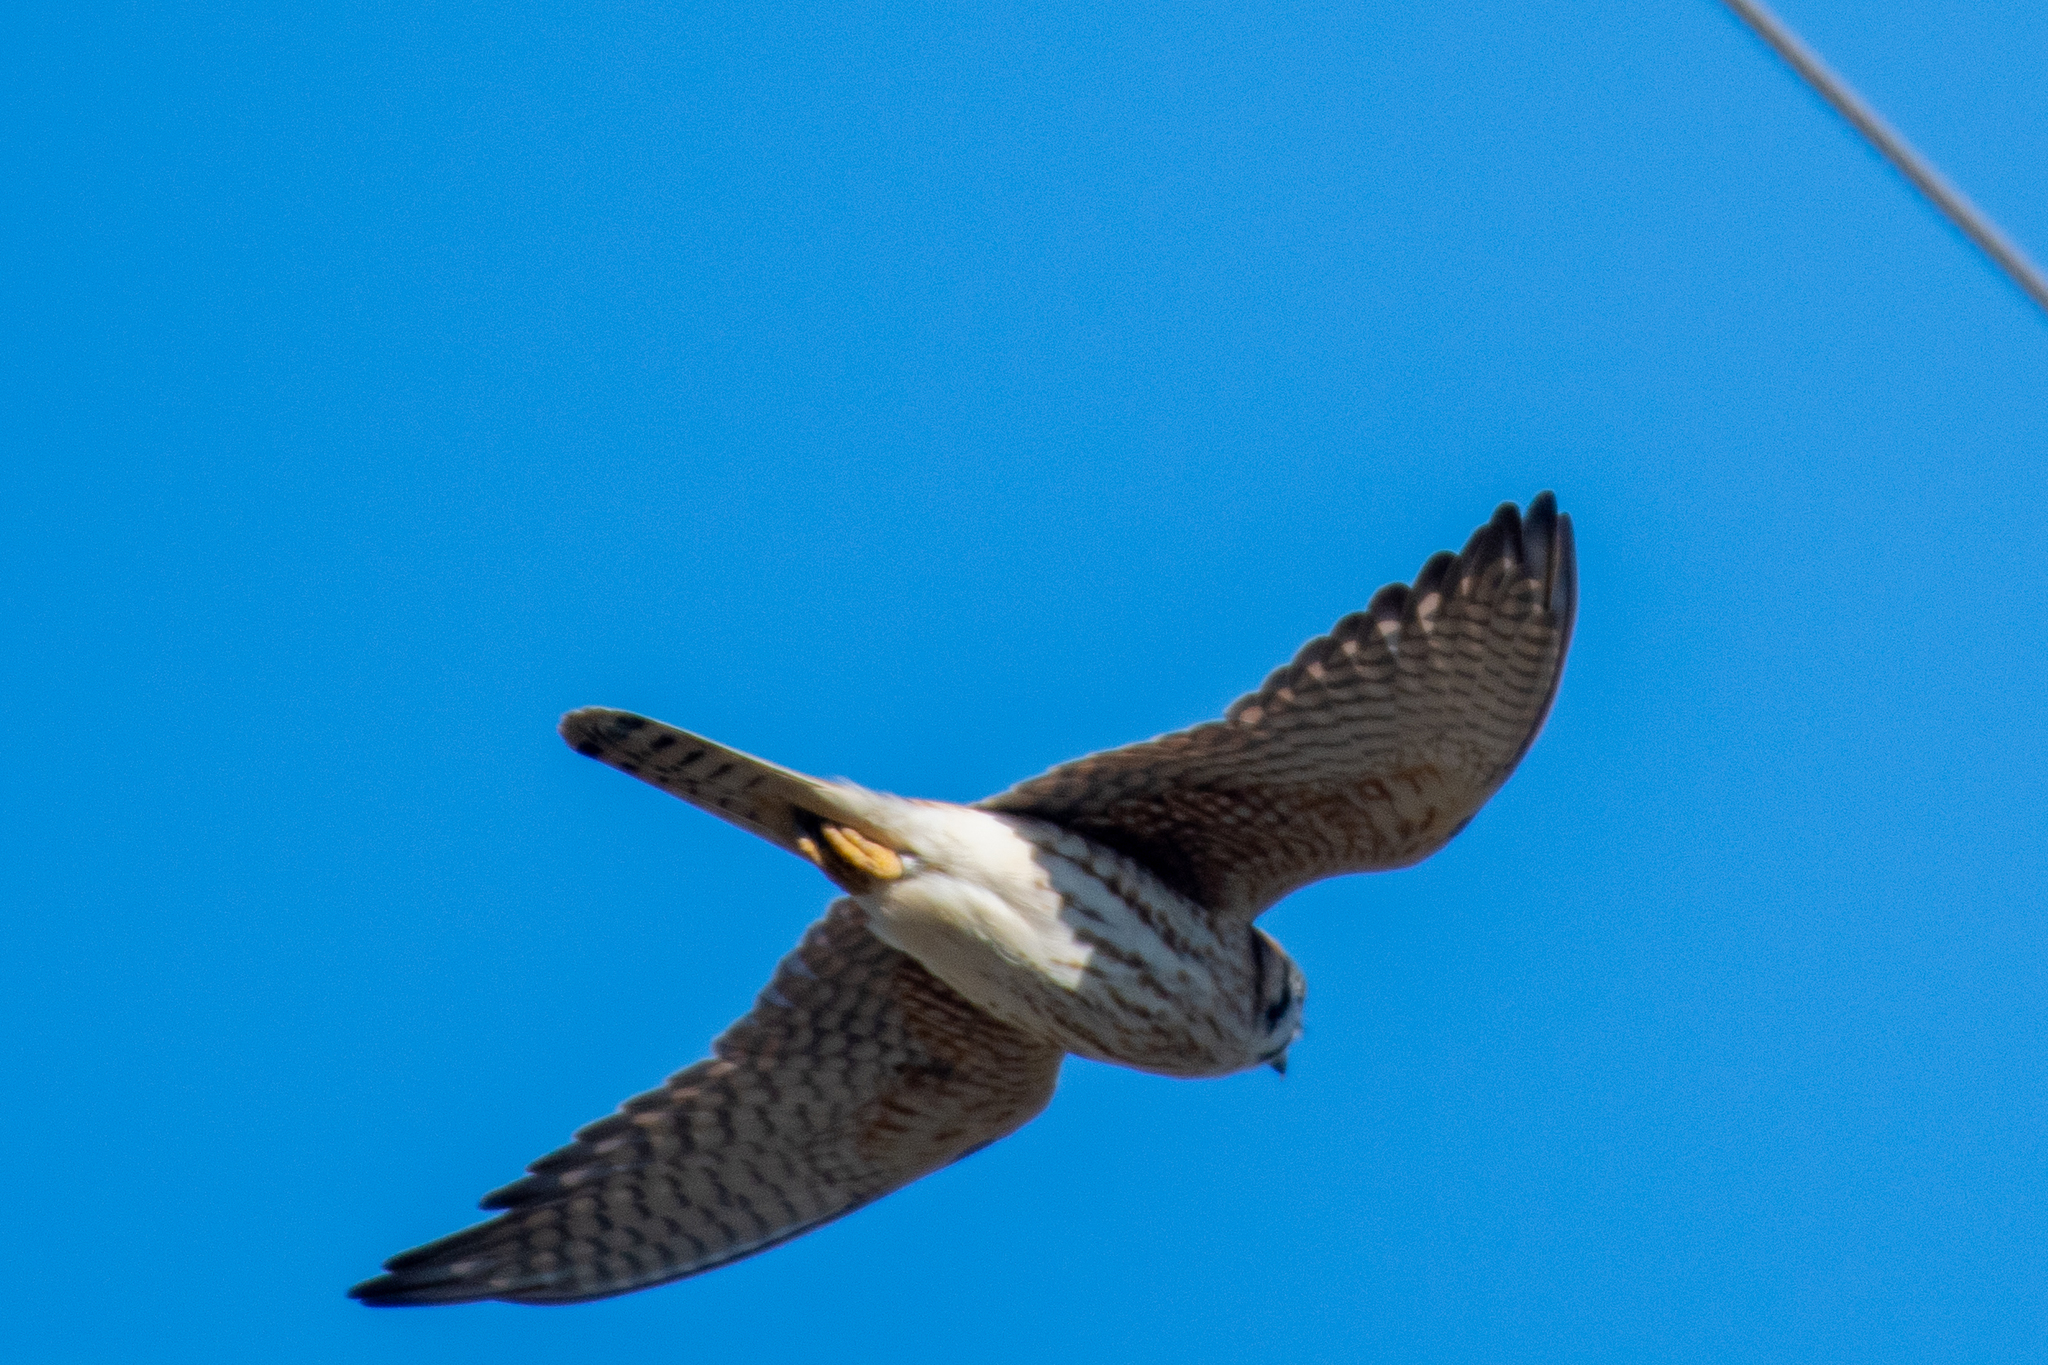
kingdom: Animalia
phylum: Chordata
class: Aves
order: Falconiformes
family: Falconidae
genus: Falco
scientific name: Falco sparverius
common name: American kestrel
